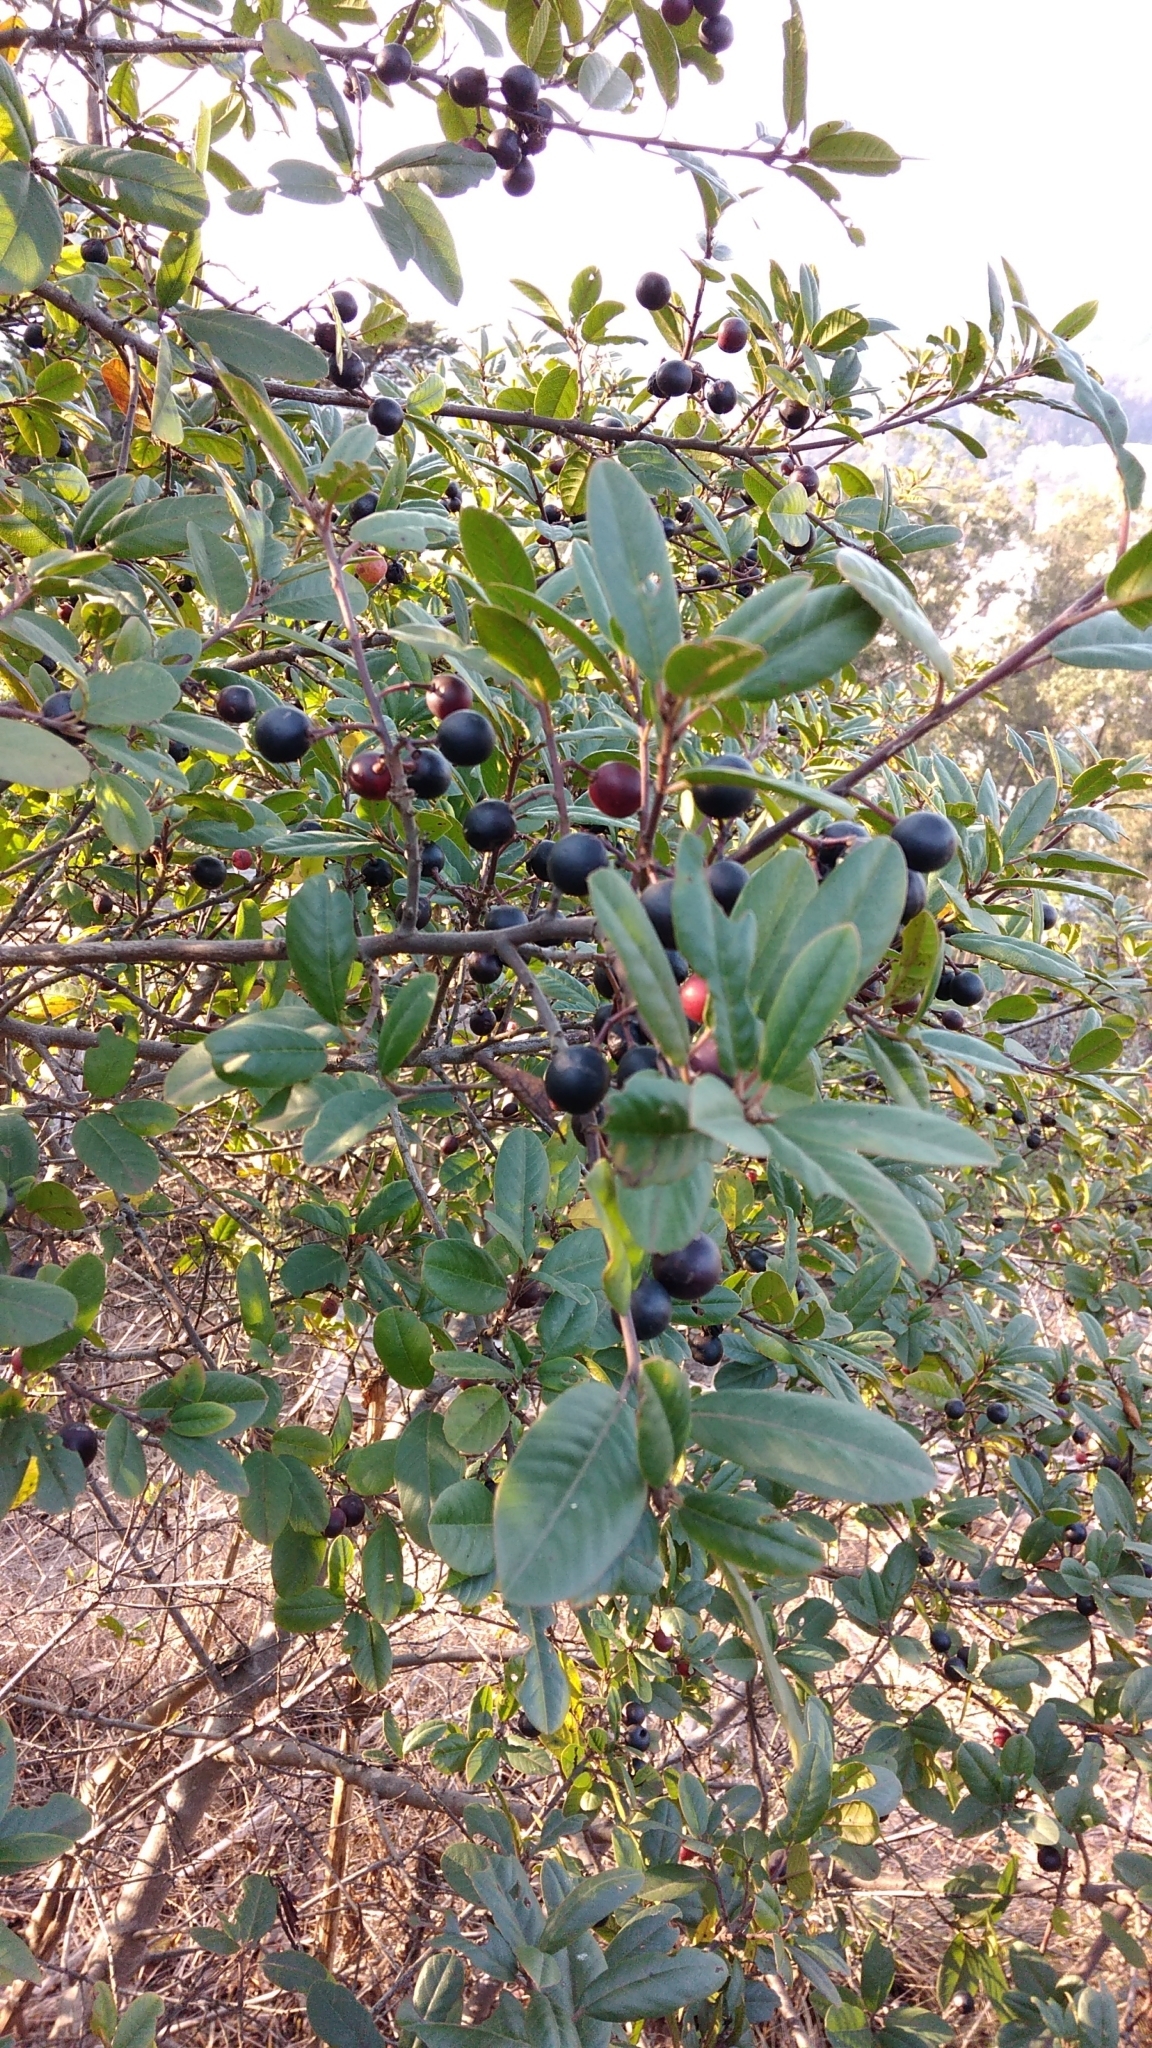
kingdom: Plantae
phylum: Tracheophyta
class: Magnoliopsida
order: Rosales
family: Rhamnaceae
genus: Frangula
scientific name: Frangula californica
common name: California buckthorn
